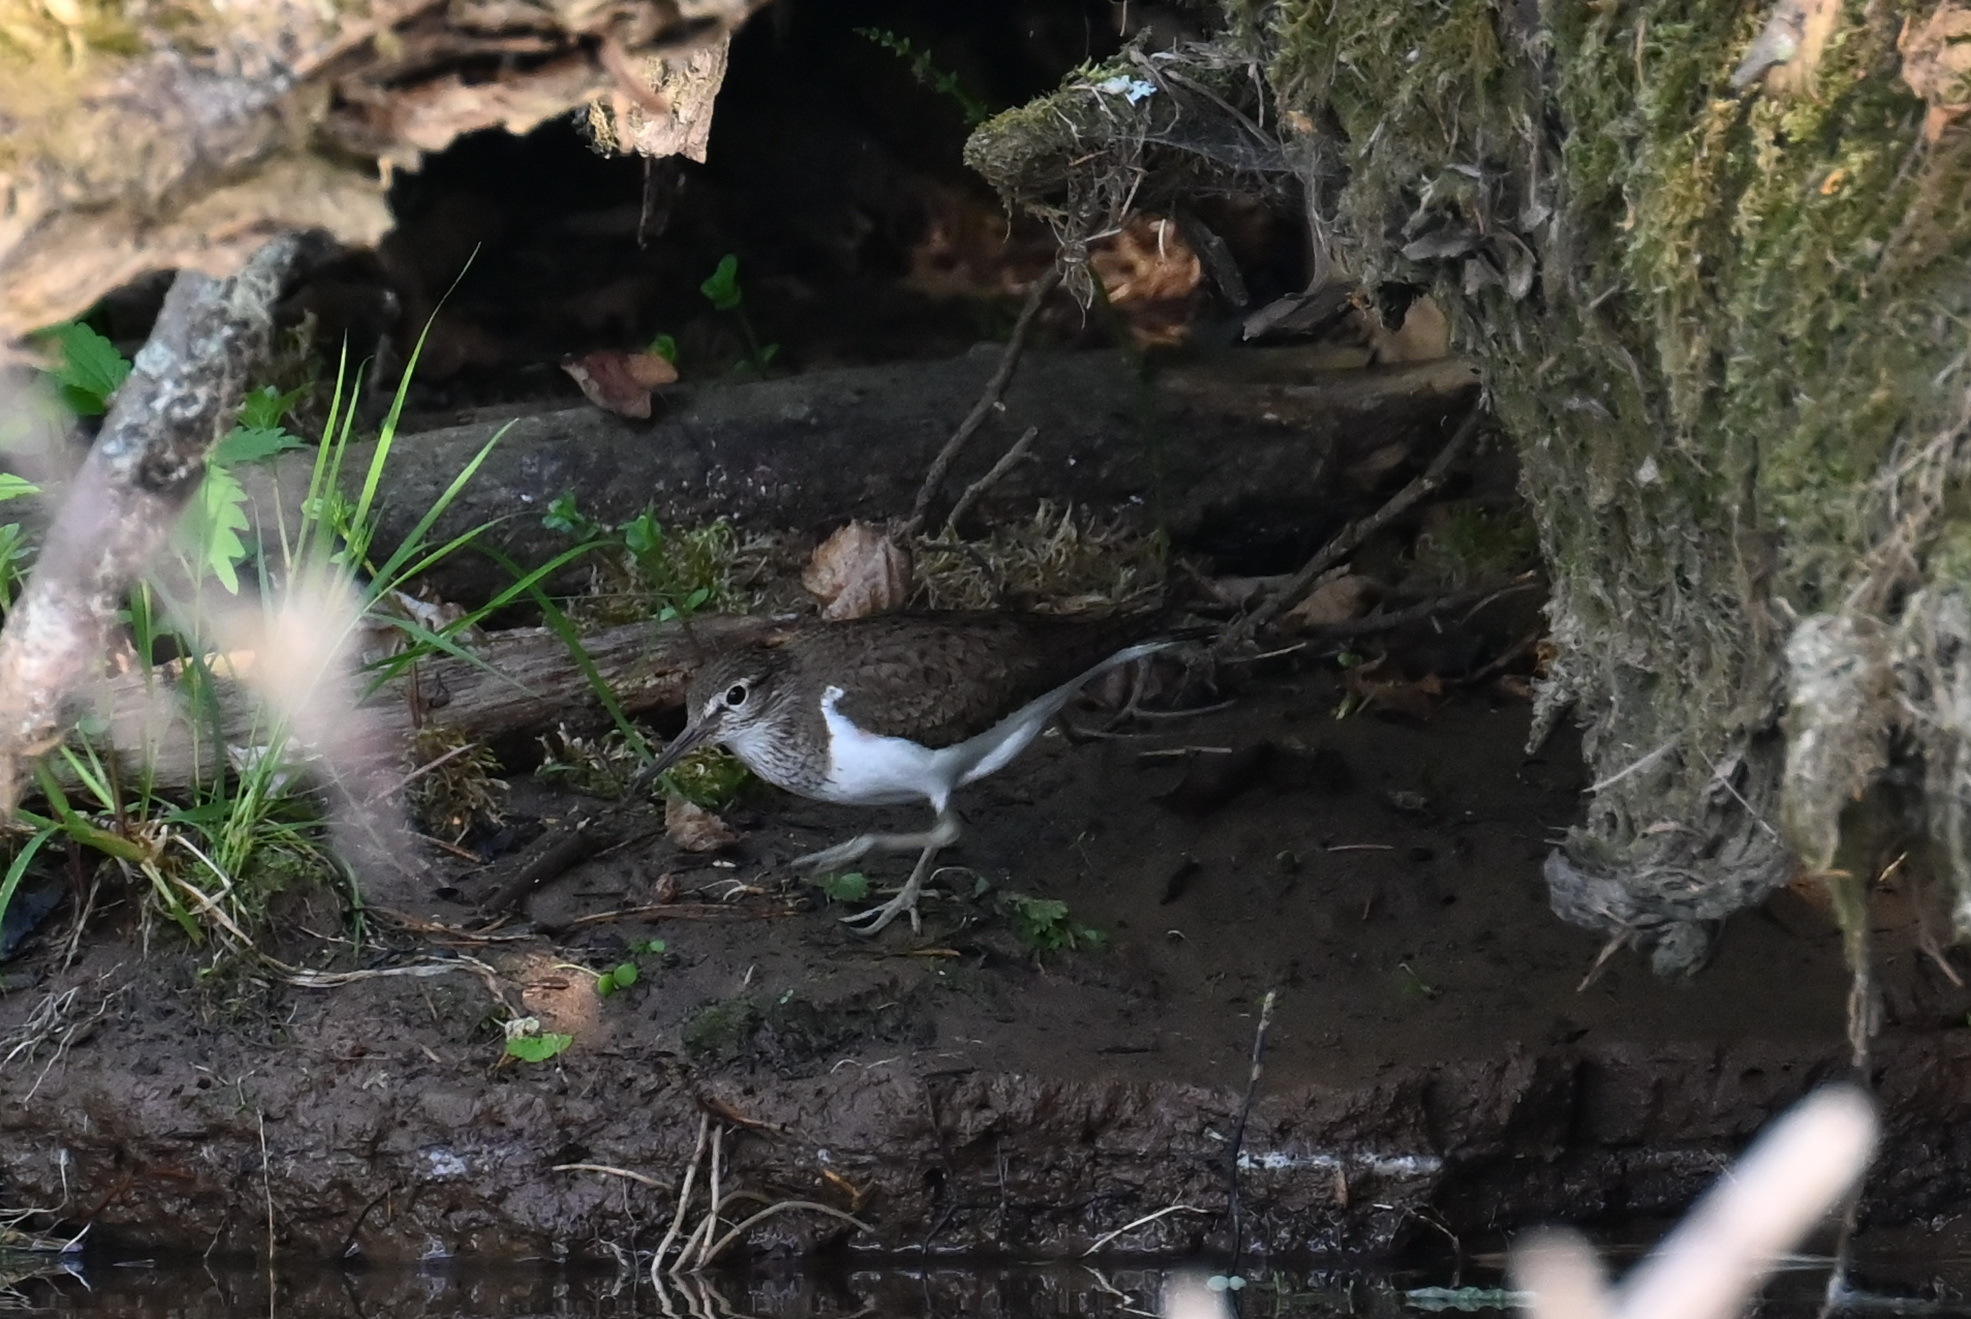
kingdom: Animalia
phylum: Chordata
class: Aves
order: Charadriiformes
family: Scolopacidae
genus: Actitis
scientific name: Actitis hypoleucos
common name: Common sandpiper
